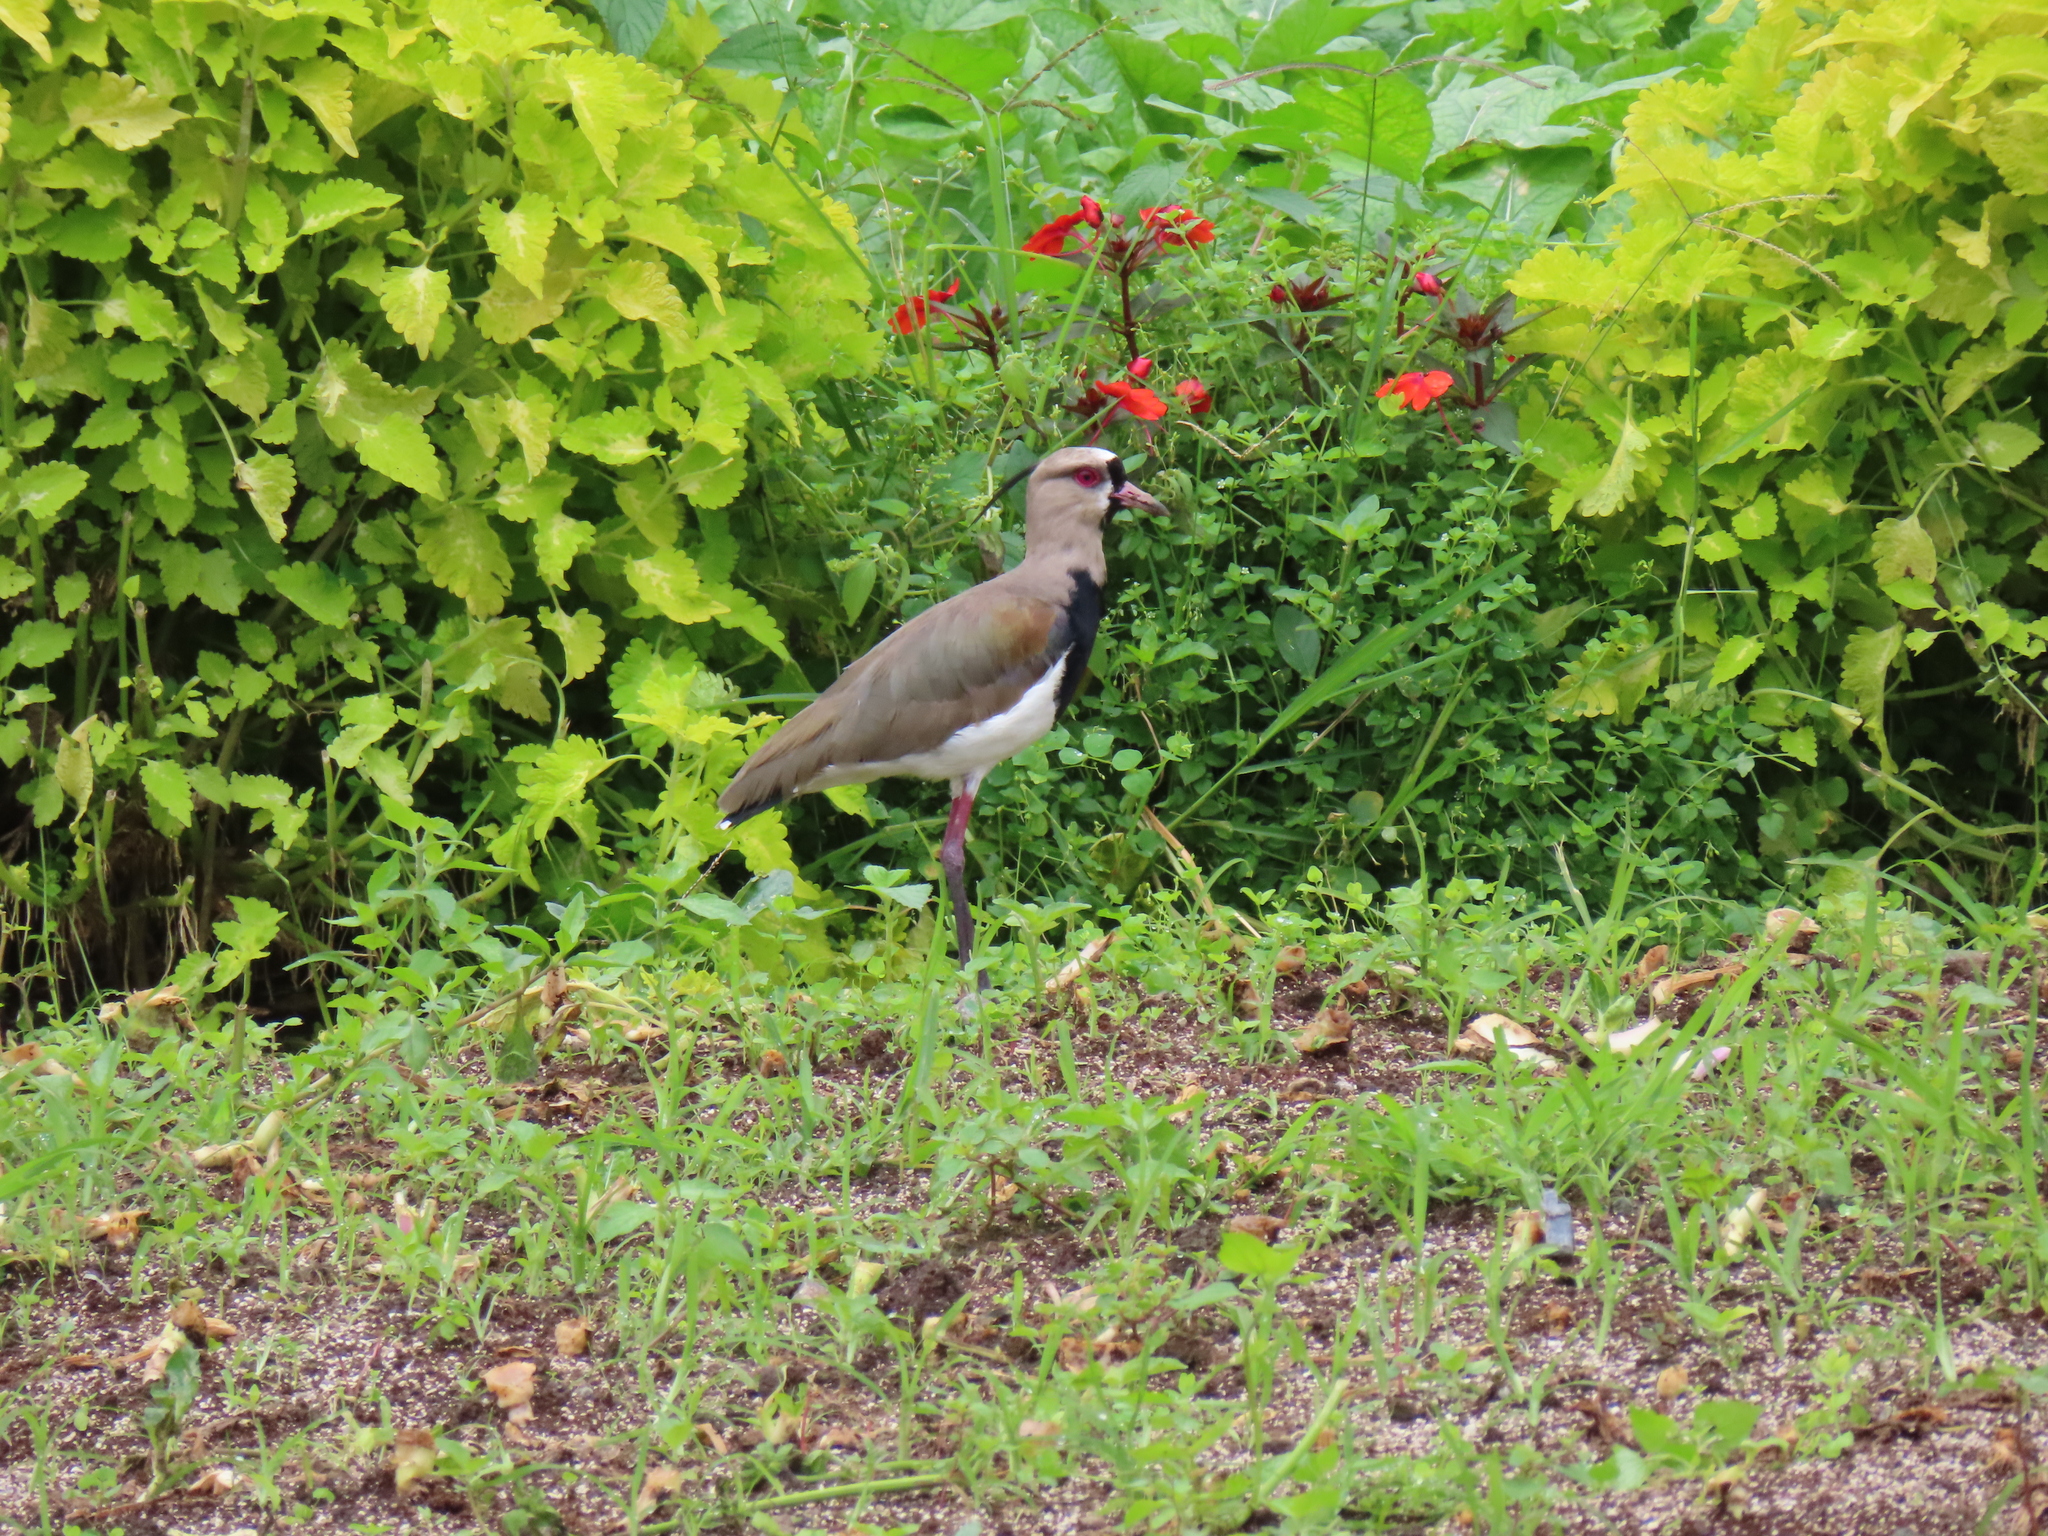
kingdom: Animalia
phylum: Chordata
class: Aves
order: Charadriiformes
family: Charadriidae
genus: Vanellus
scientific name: Vanellus chilensis
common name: Southern lapwing
